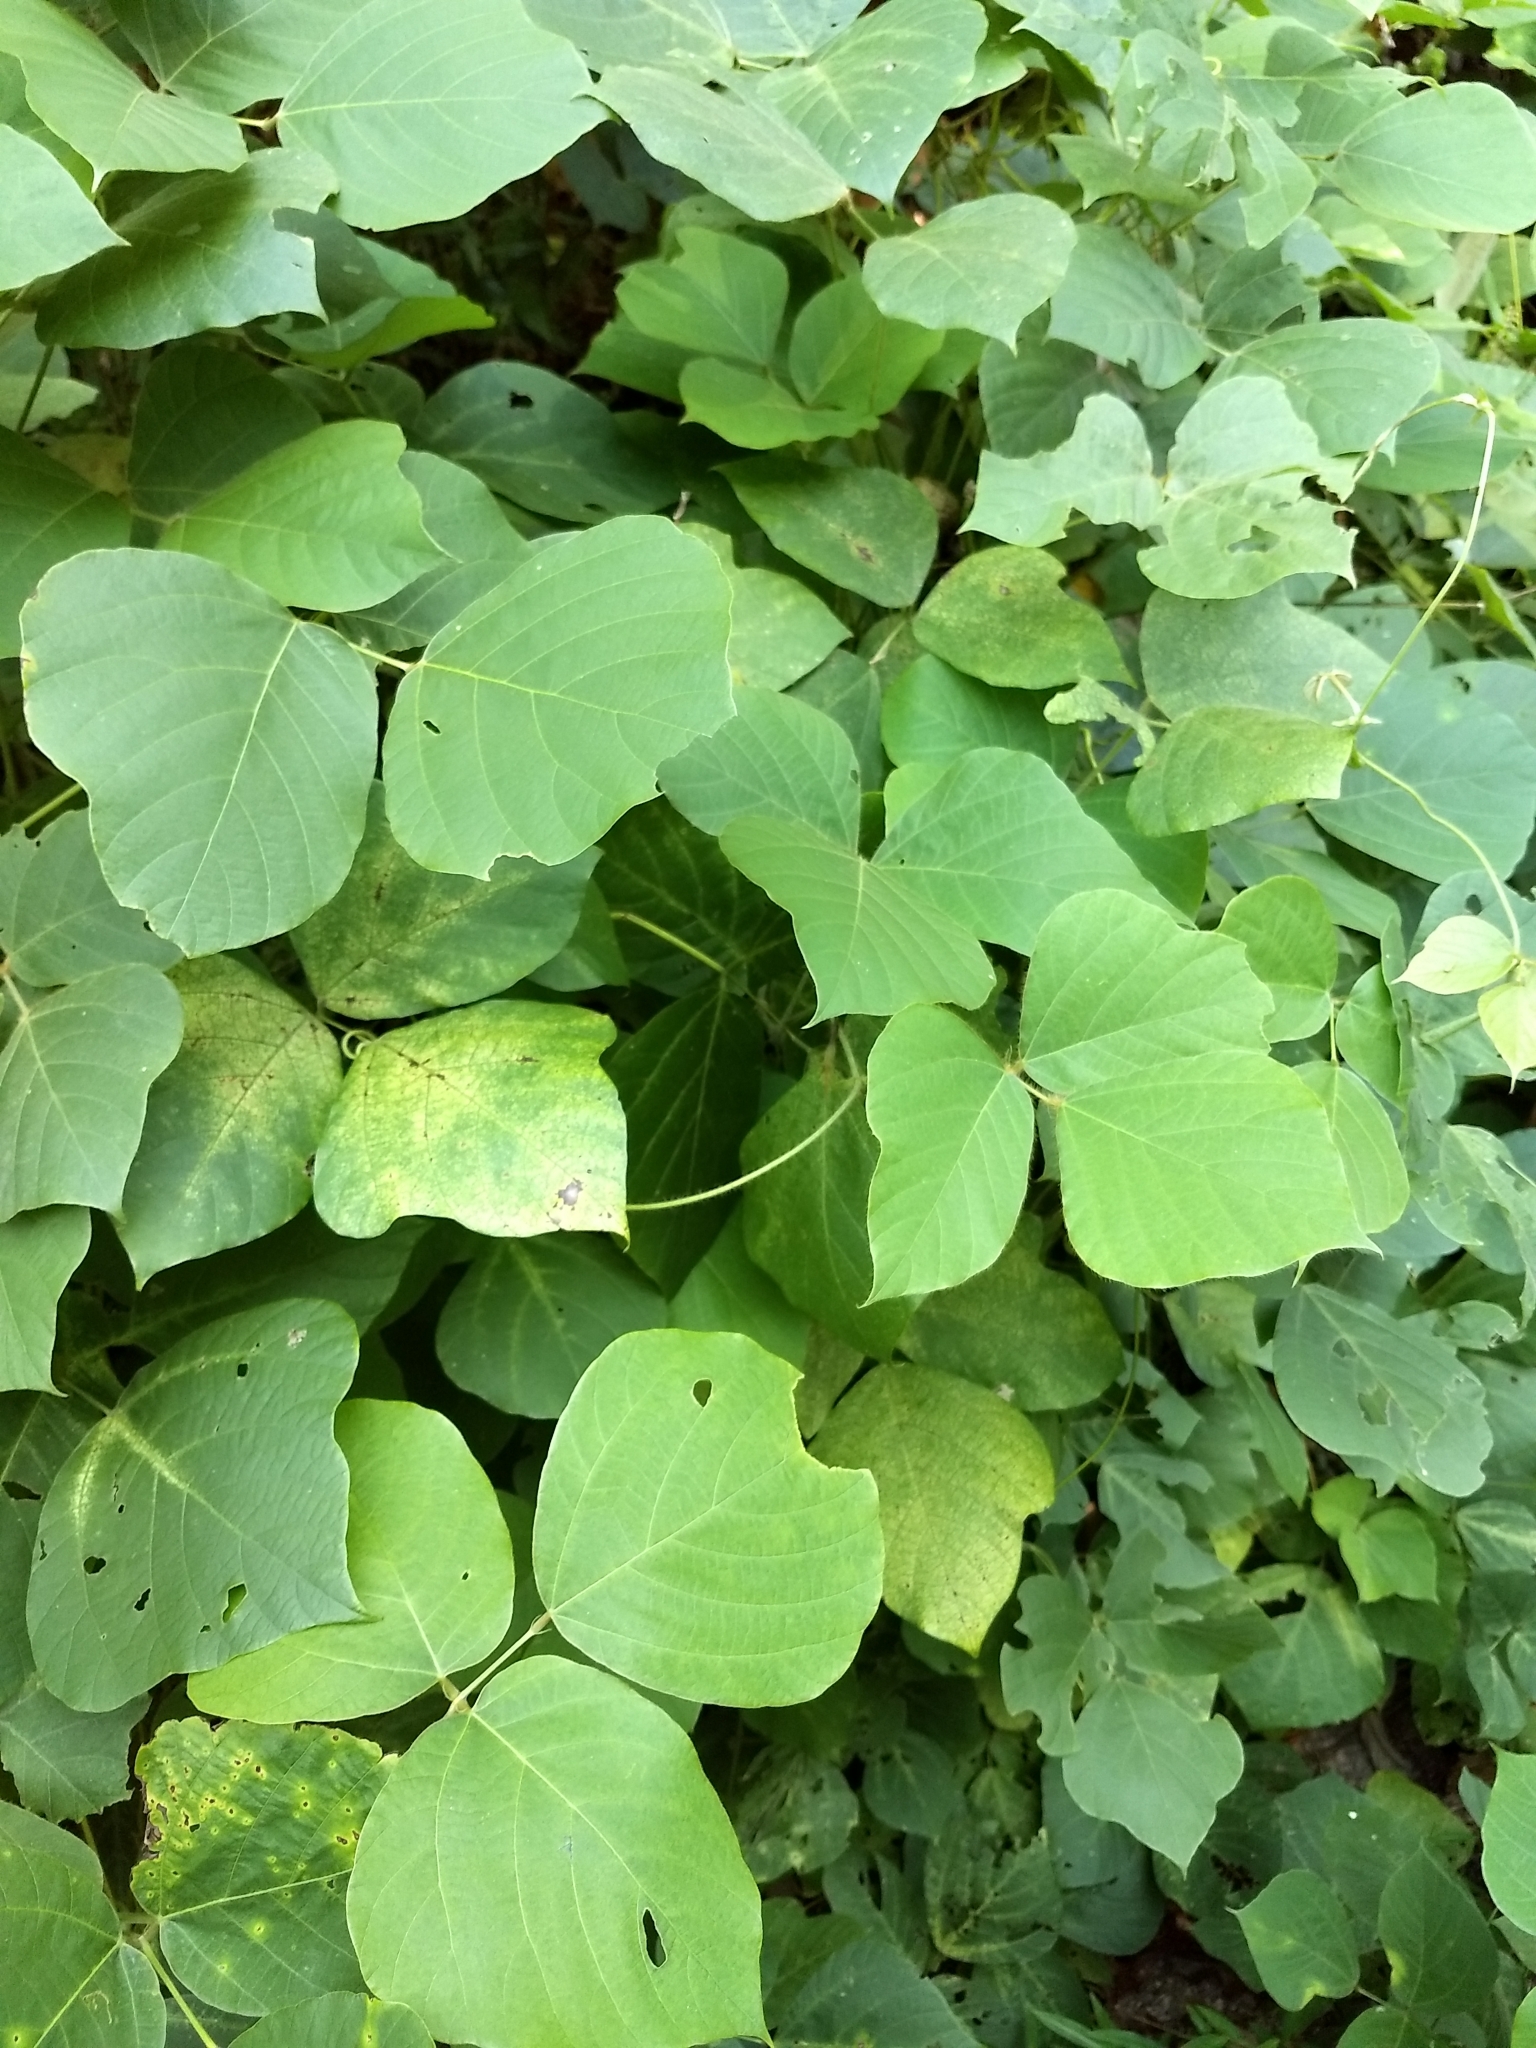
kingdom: Plantae
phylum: Tracheophyta
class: Magnoliopsida
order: Fabales
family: Fabaceae
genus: Pueraria
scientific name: Pueraria montana
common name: Kudzu
